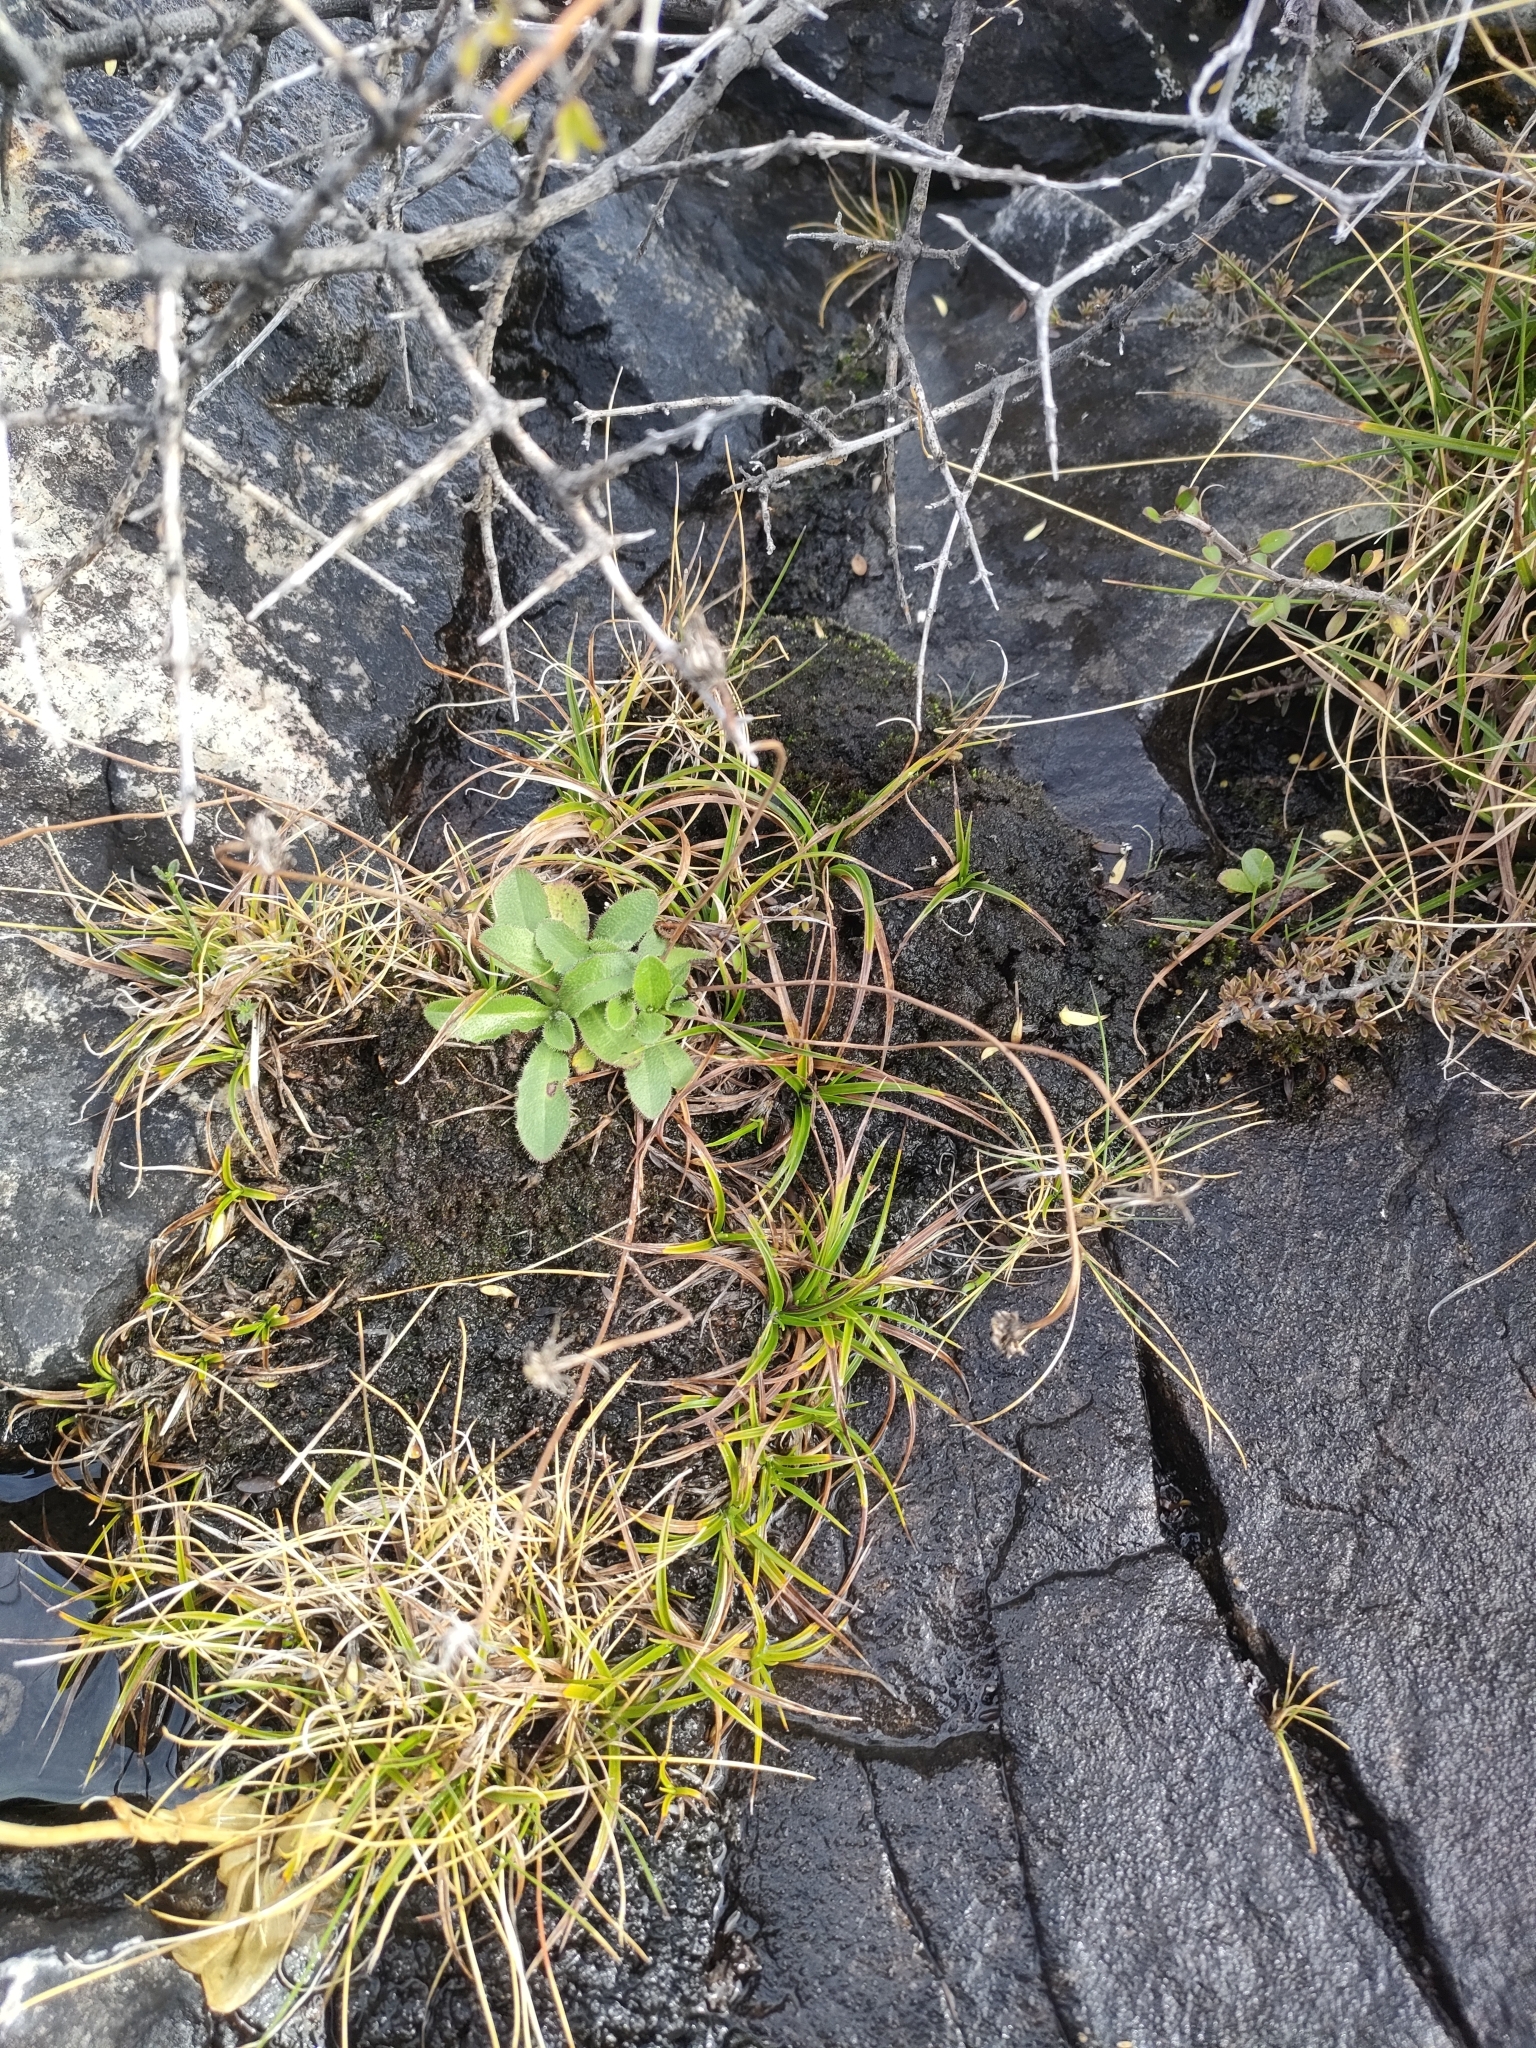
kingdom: Plantae
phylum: Tracheophyta
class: Liliopsida
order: Poales
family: Cyperaceae
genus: Carex
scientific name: Carex breviculmis
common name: Asian shortstem sedge
